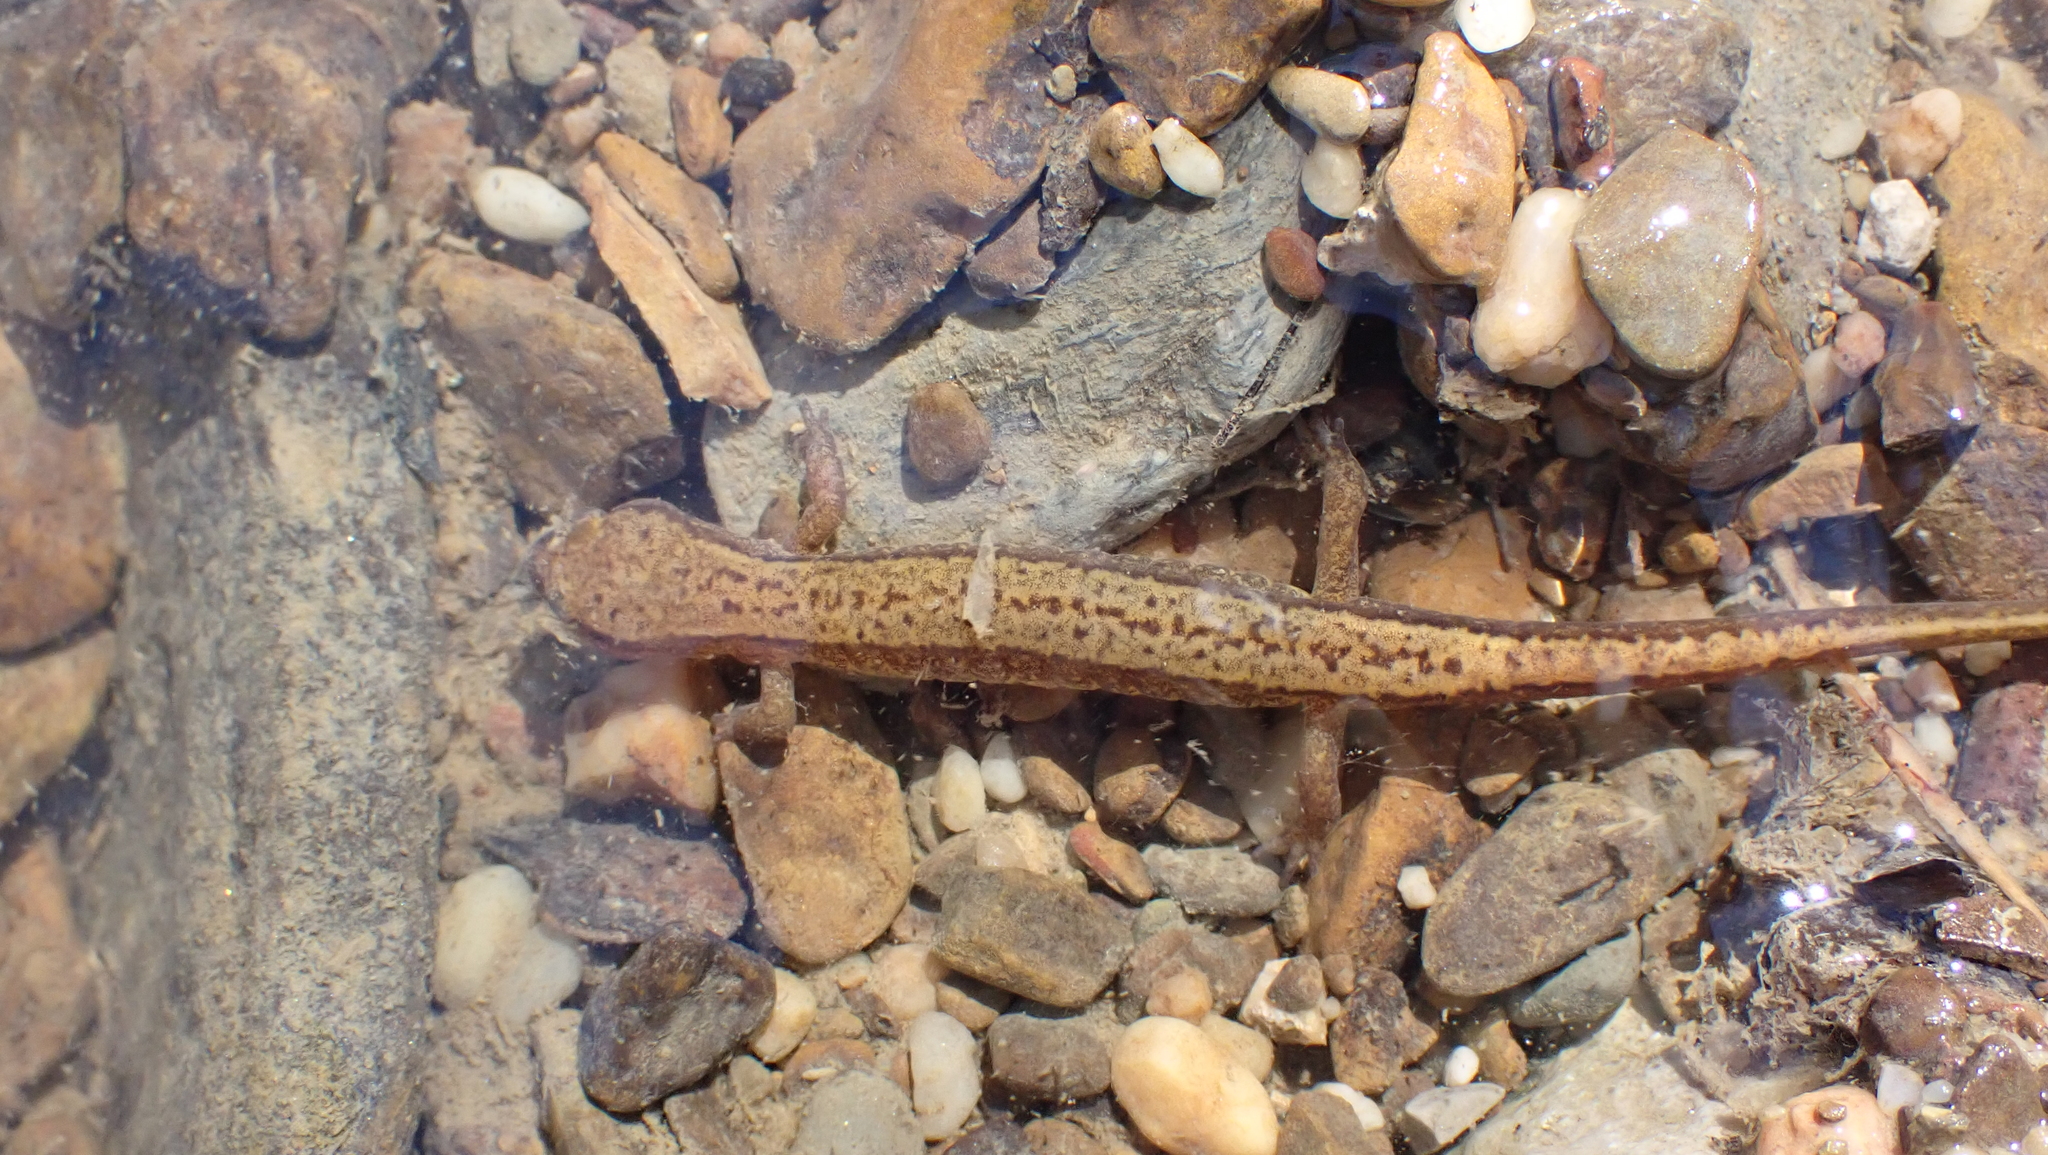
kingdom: Animalia
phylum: Chordata
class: Amphibia
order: Caudata
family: Plethodontidae
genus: Eurycea
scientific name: Eurycea cirrigera
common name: Southern two-lined salamander
